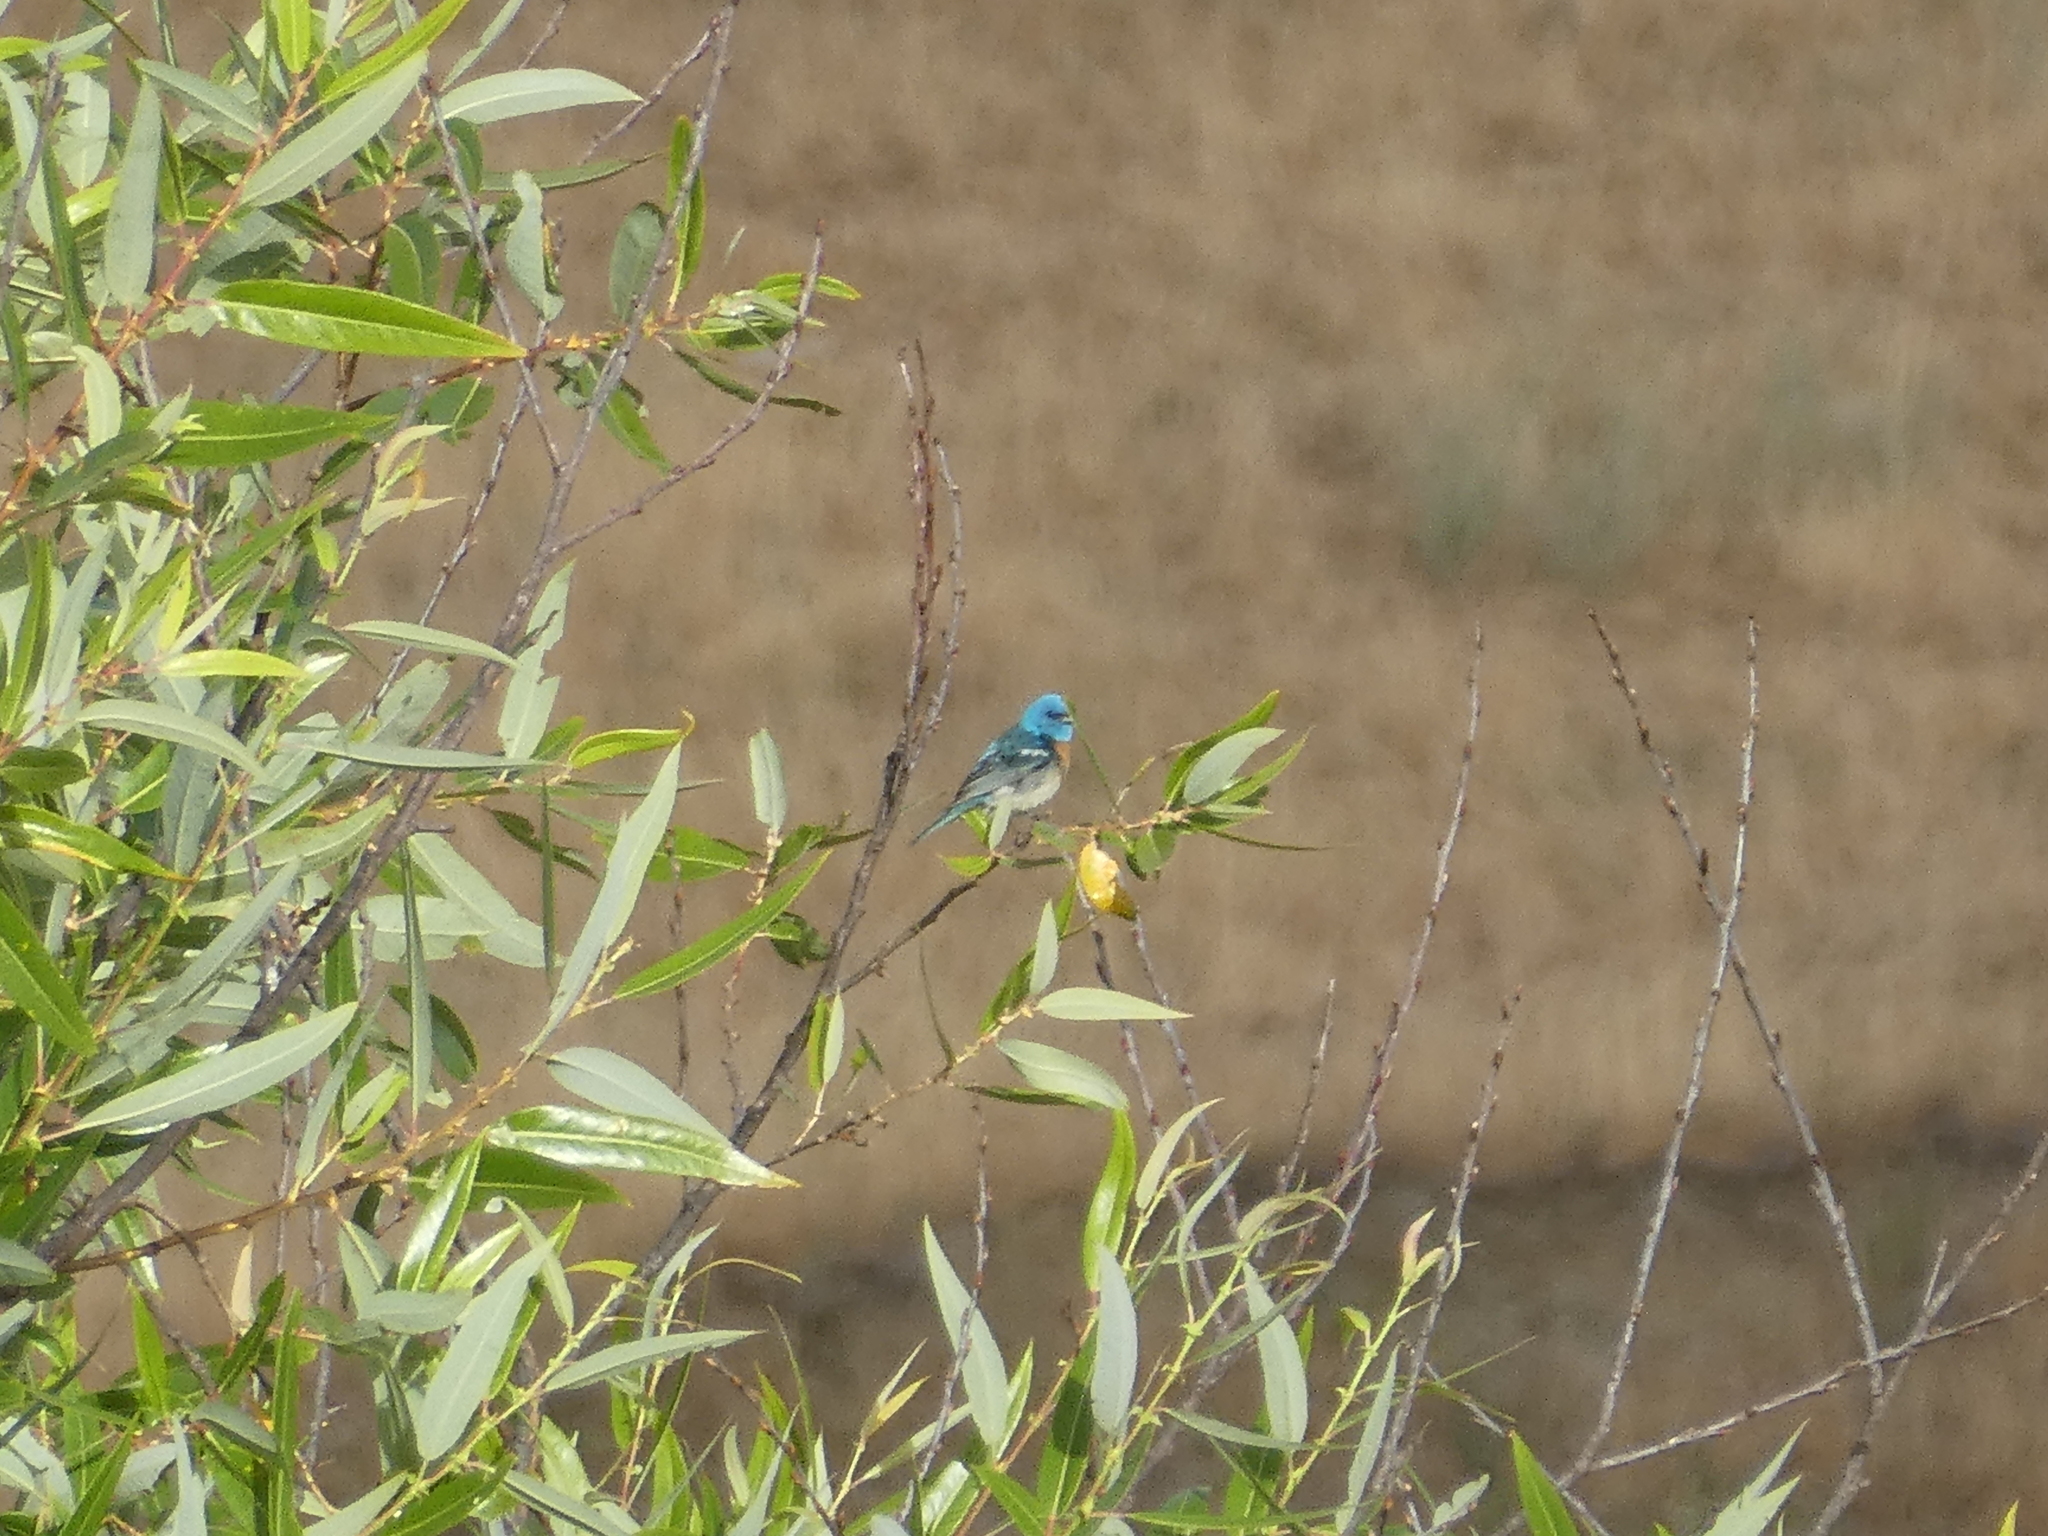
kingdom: Animalia
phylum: Chordata
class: Aves
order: Passeriformes
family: Cardinalidae
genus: Passerina
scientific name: Passerina amoena
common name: Lazuli bunting
